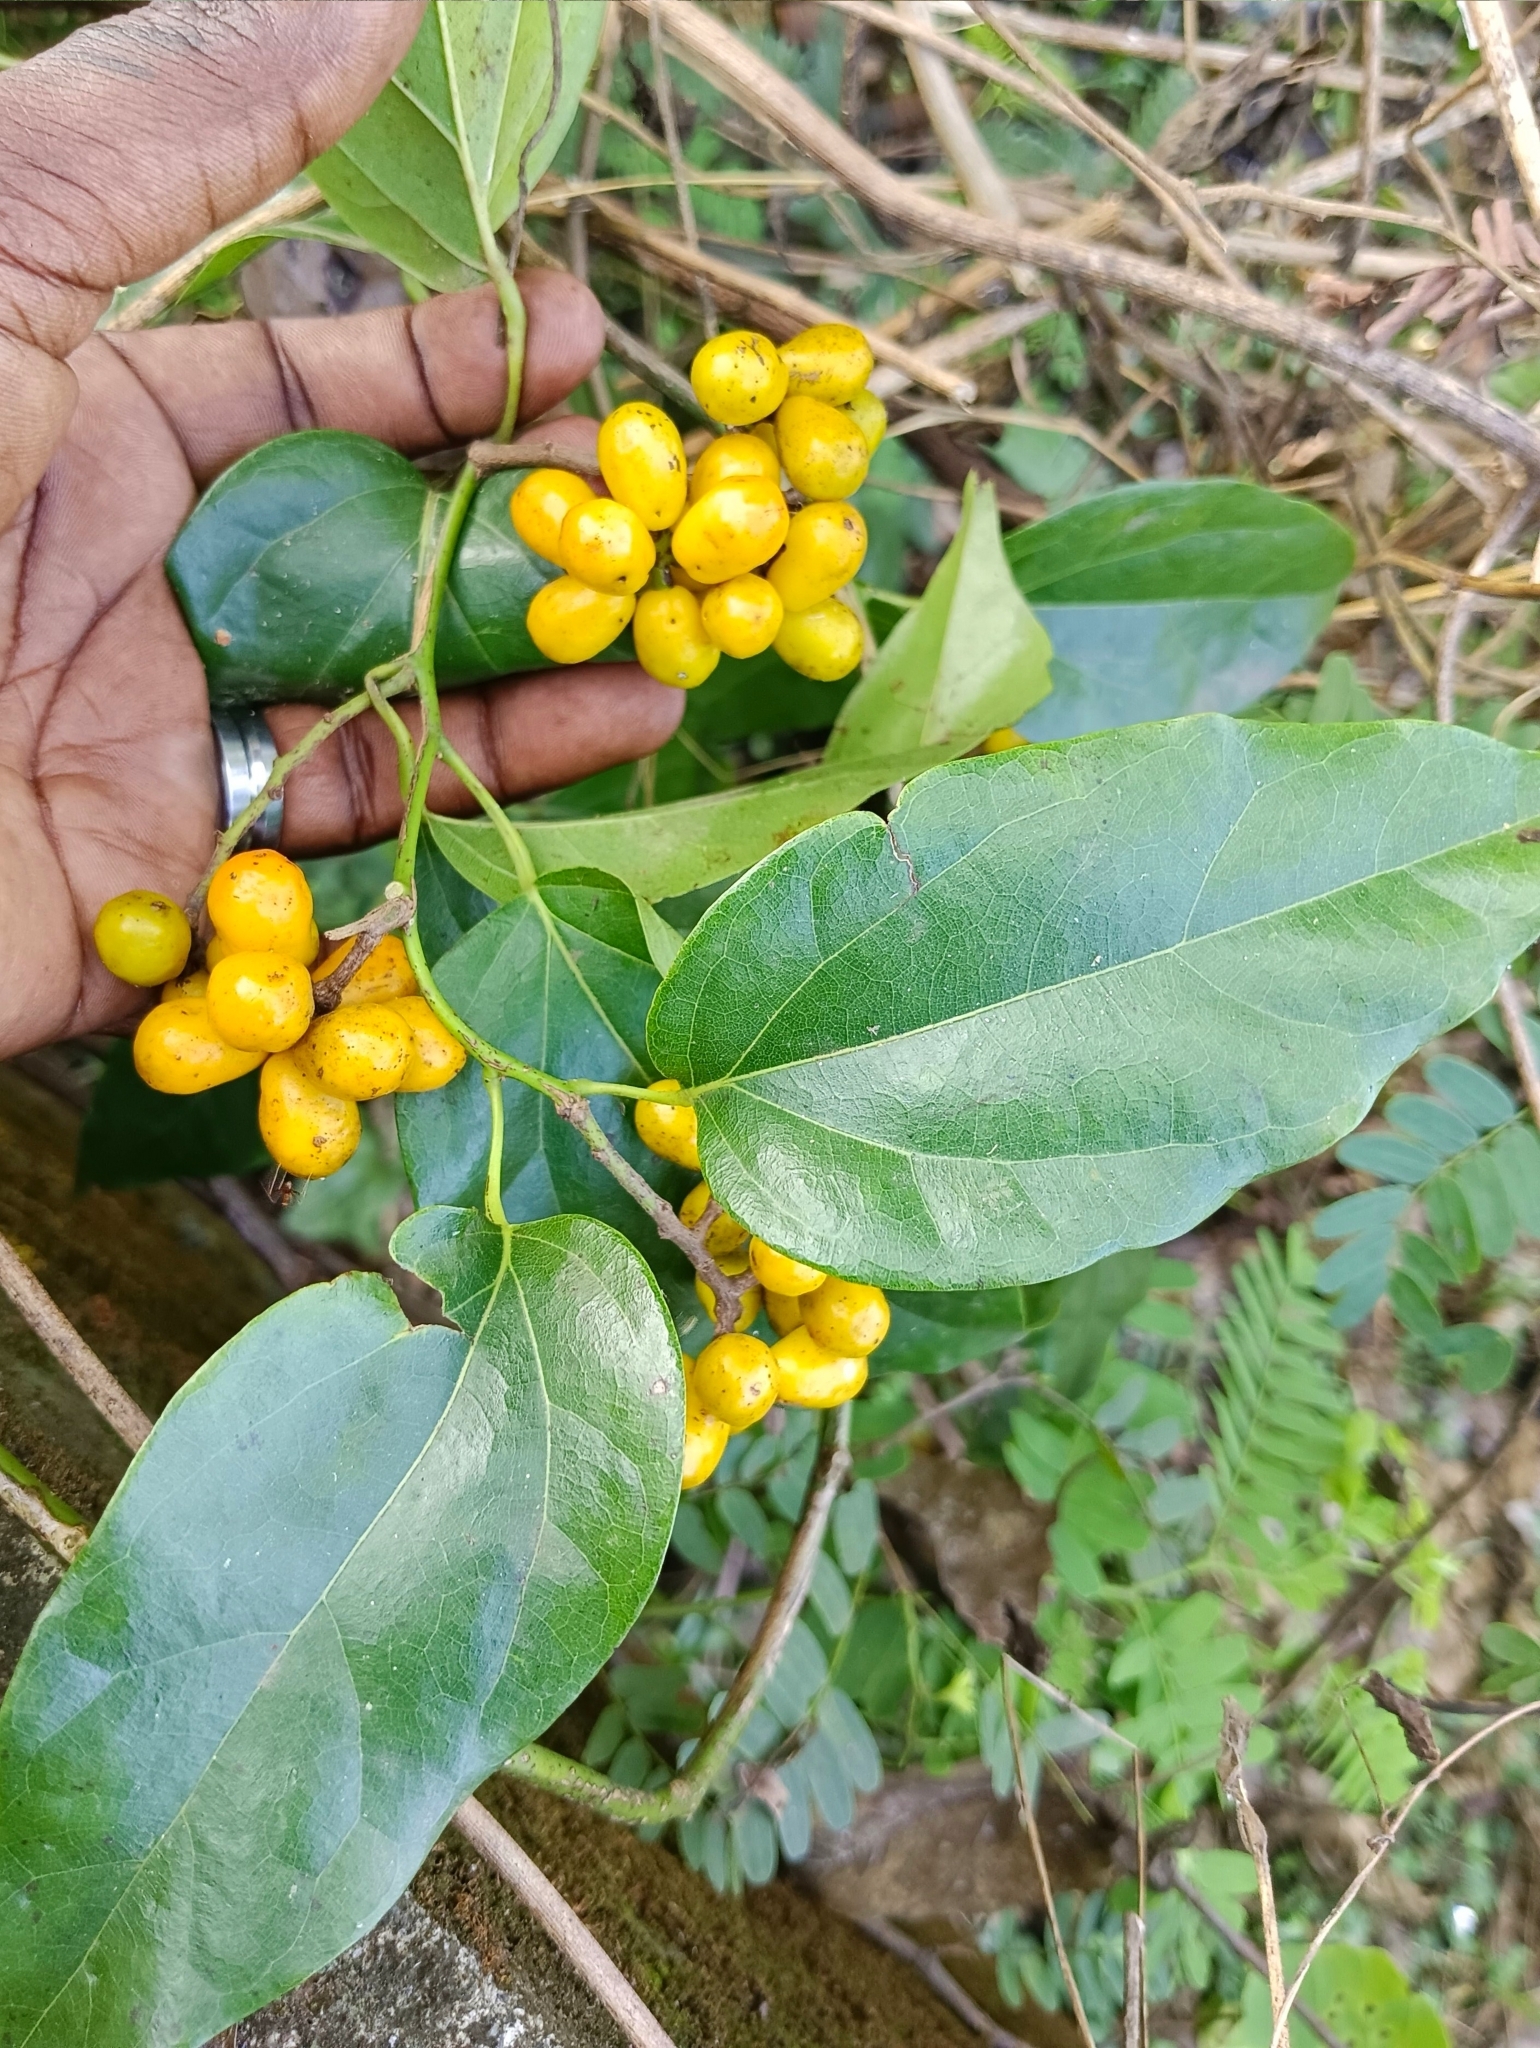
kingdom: Plantae
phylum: Tracheophyta
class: Magnoliopsida
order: Ranunculales
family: Menispermaceae
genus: Tiliacora
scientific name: Tiliacora acuminata
